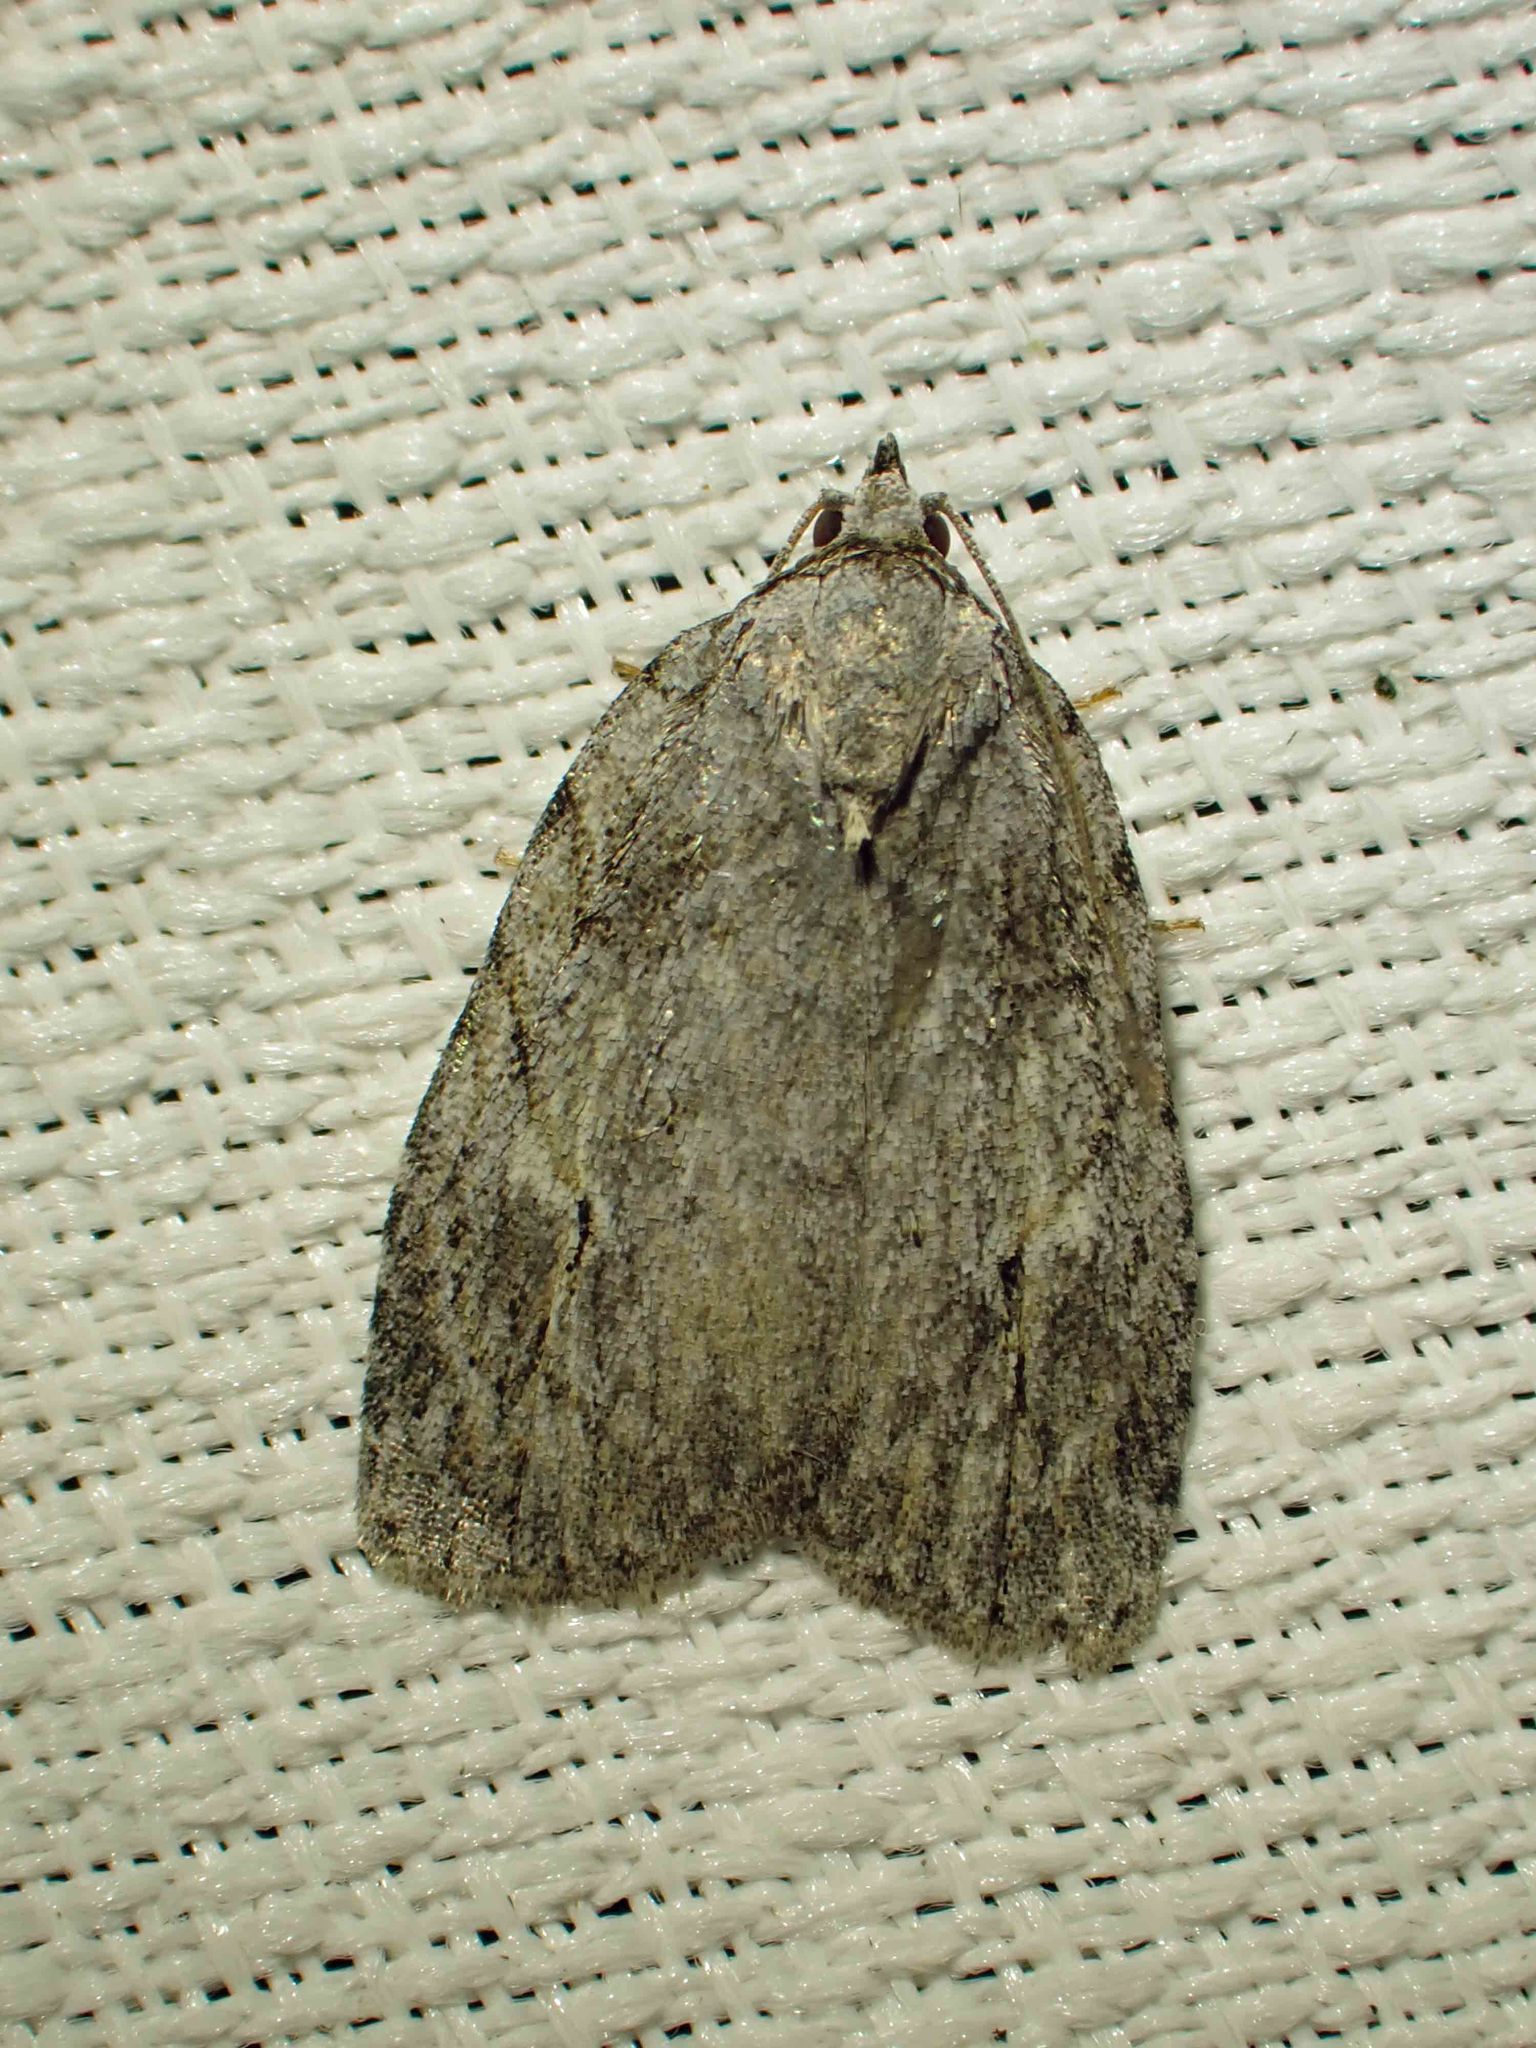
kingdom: Animalia
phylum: Arthropoda
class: Insecta
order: Lepidoptera
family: Noctuidae
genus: Balsa
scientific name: Balsa labecula
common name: White-blotched balsa moth
